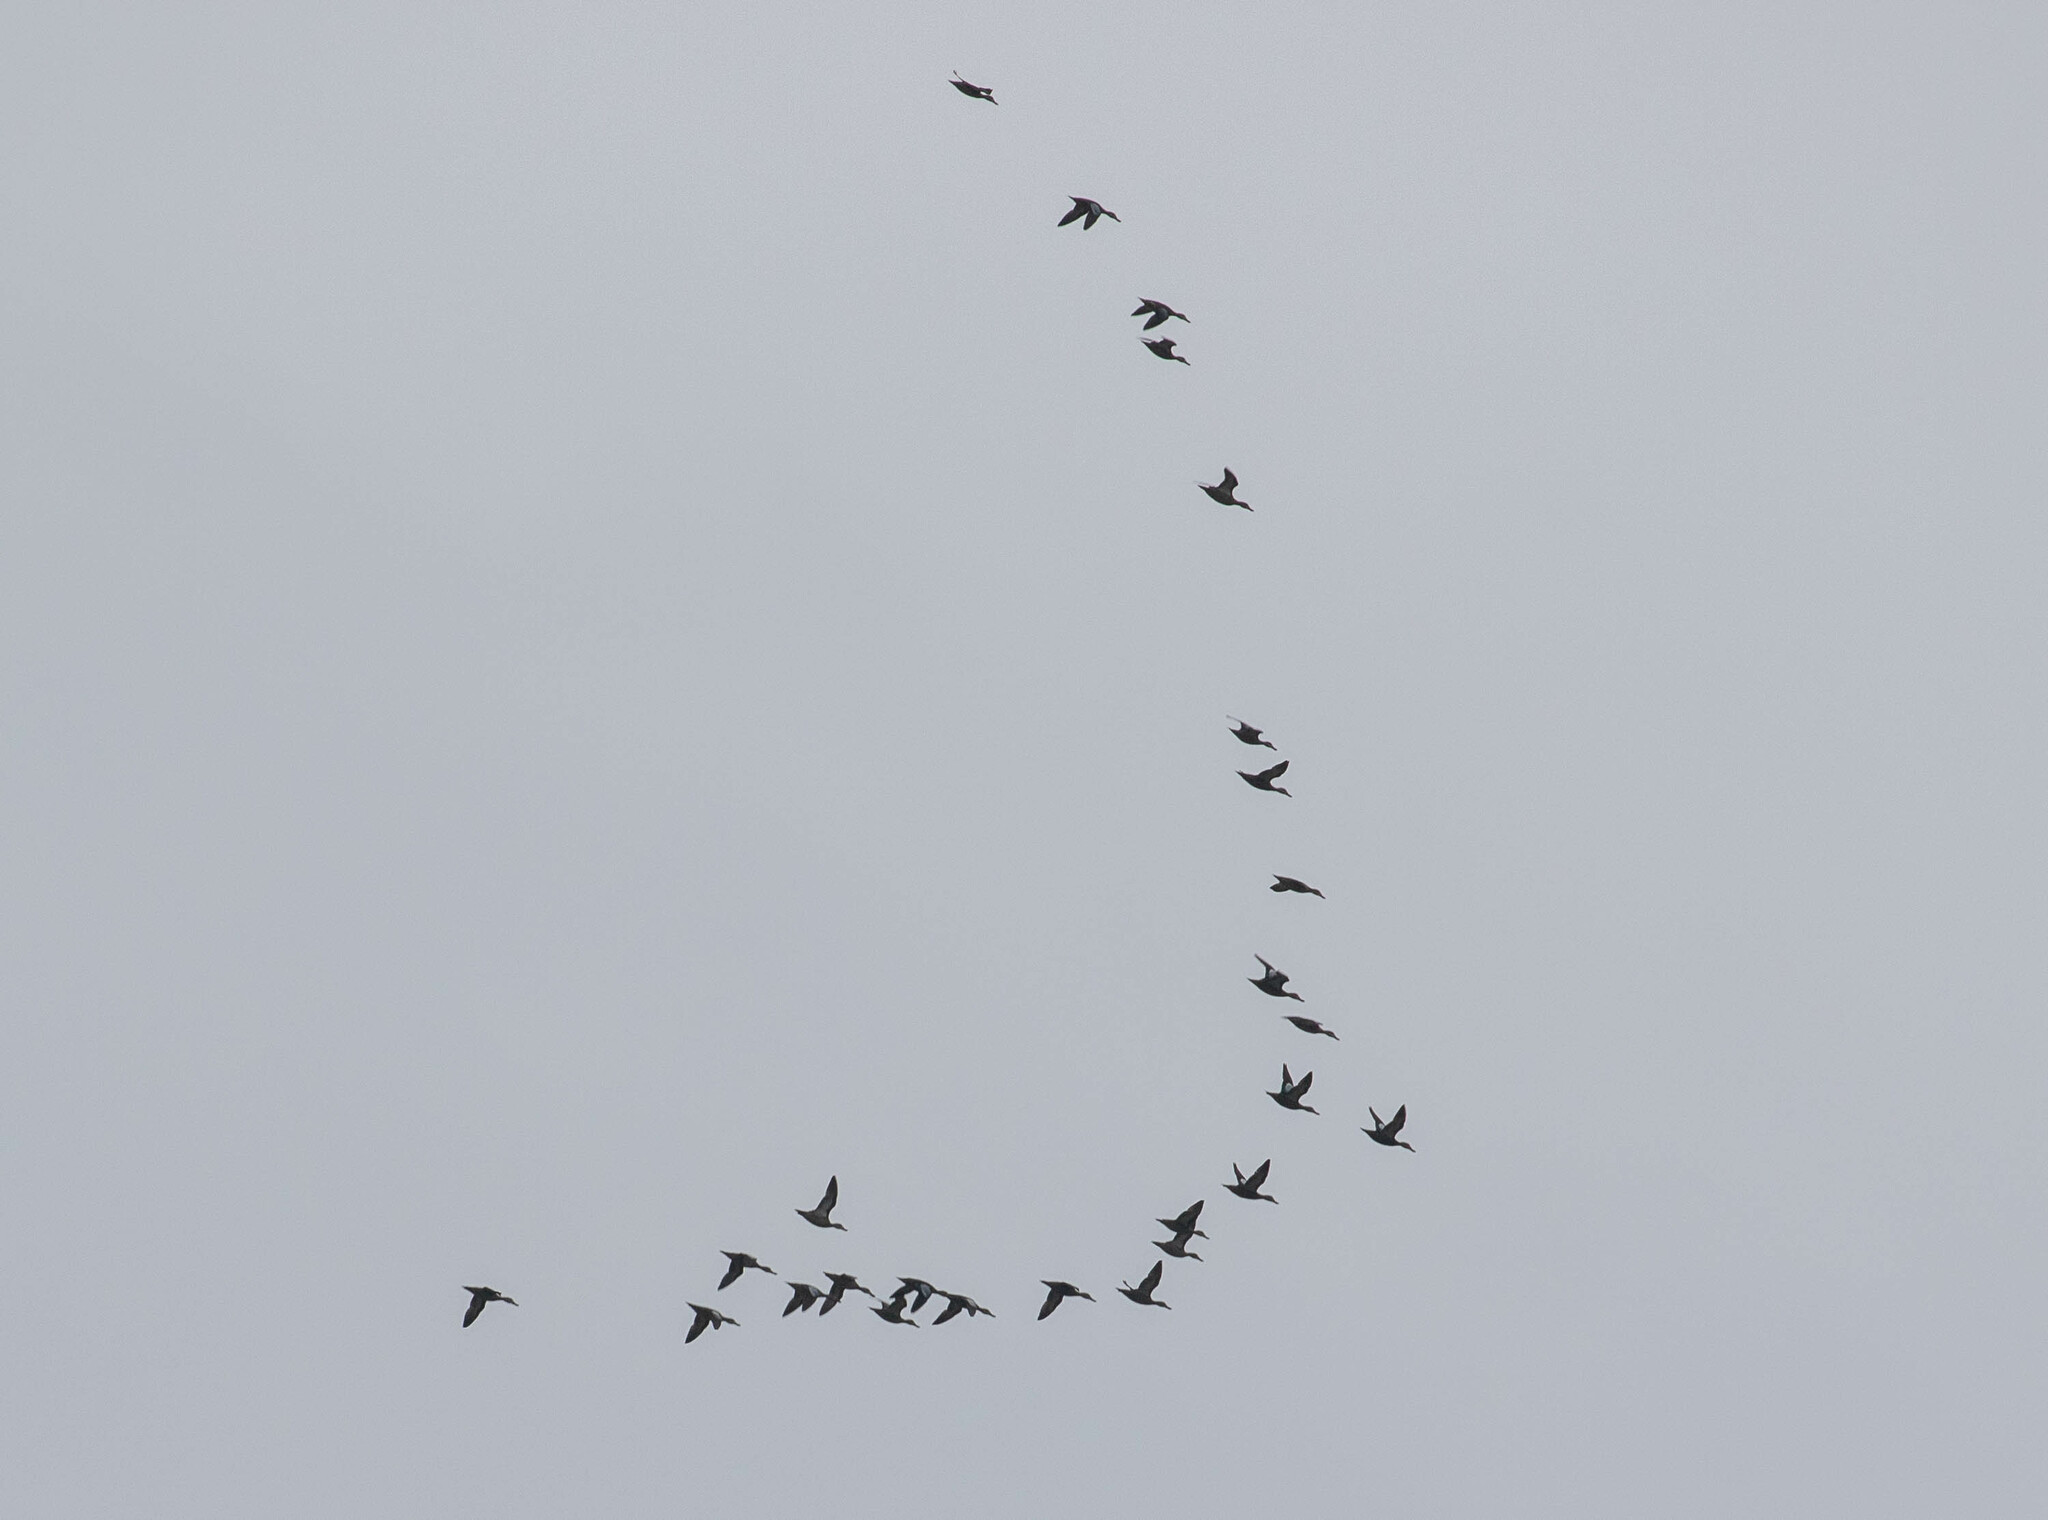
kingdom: Animalia
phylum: Chordata
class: Aves
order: Anseriformes
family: Anatidae
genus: Spatula
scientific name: Spatula discors
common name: Blue-winged teal
